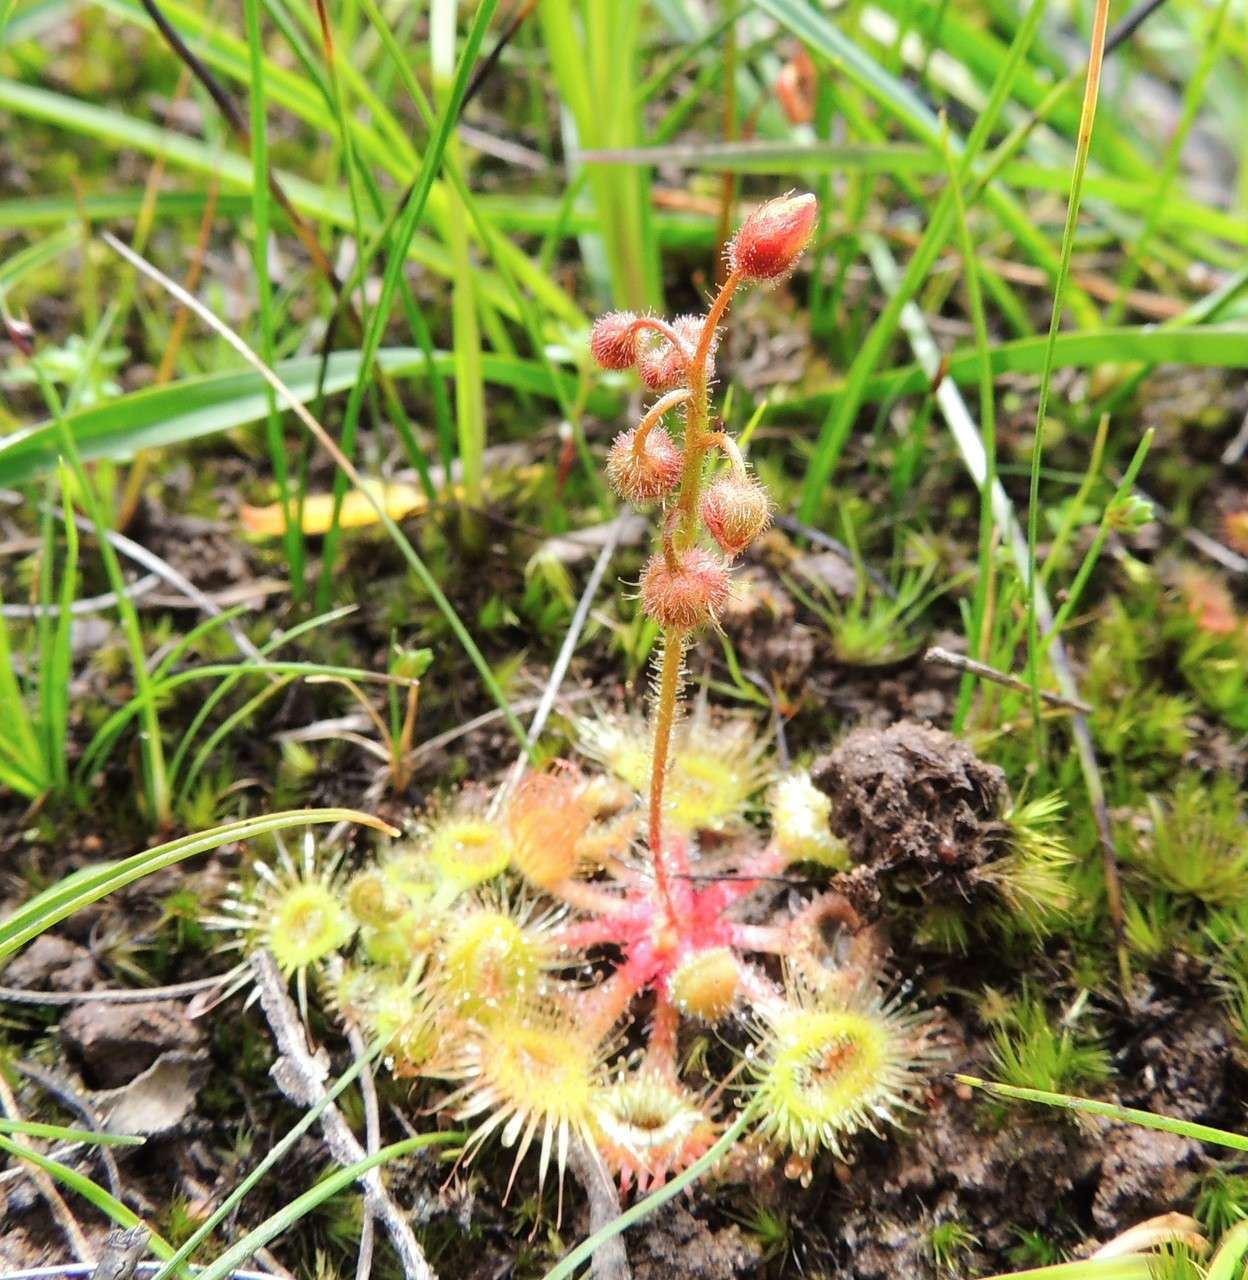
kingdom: Plantae
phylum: Tracheophyta
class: Magnoliopsida
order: Caryophyllales
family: Droseraceae
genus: Drosera
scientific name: Drosera glanduligera
